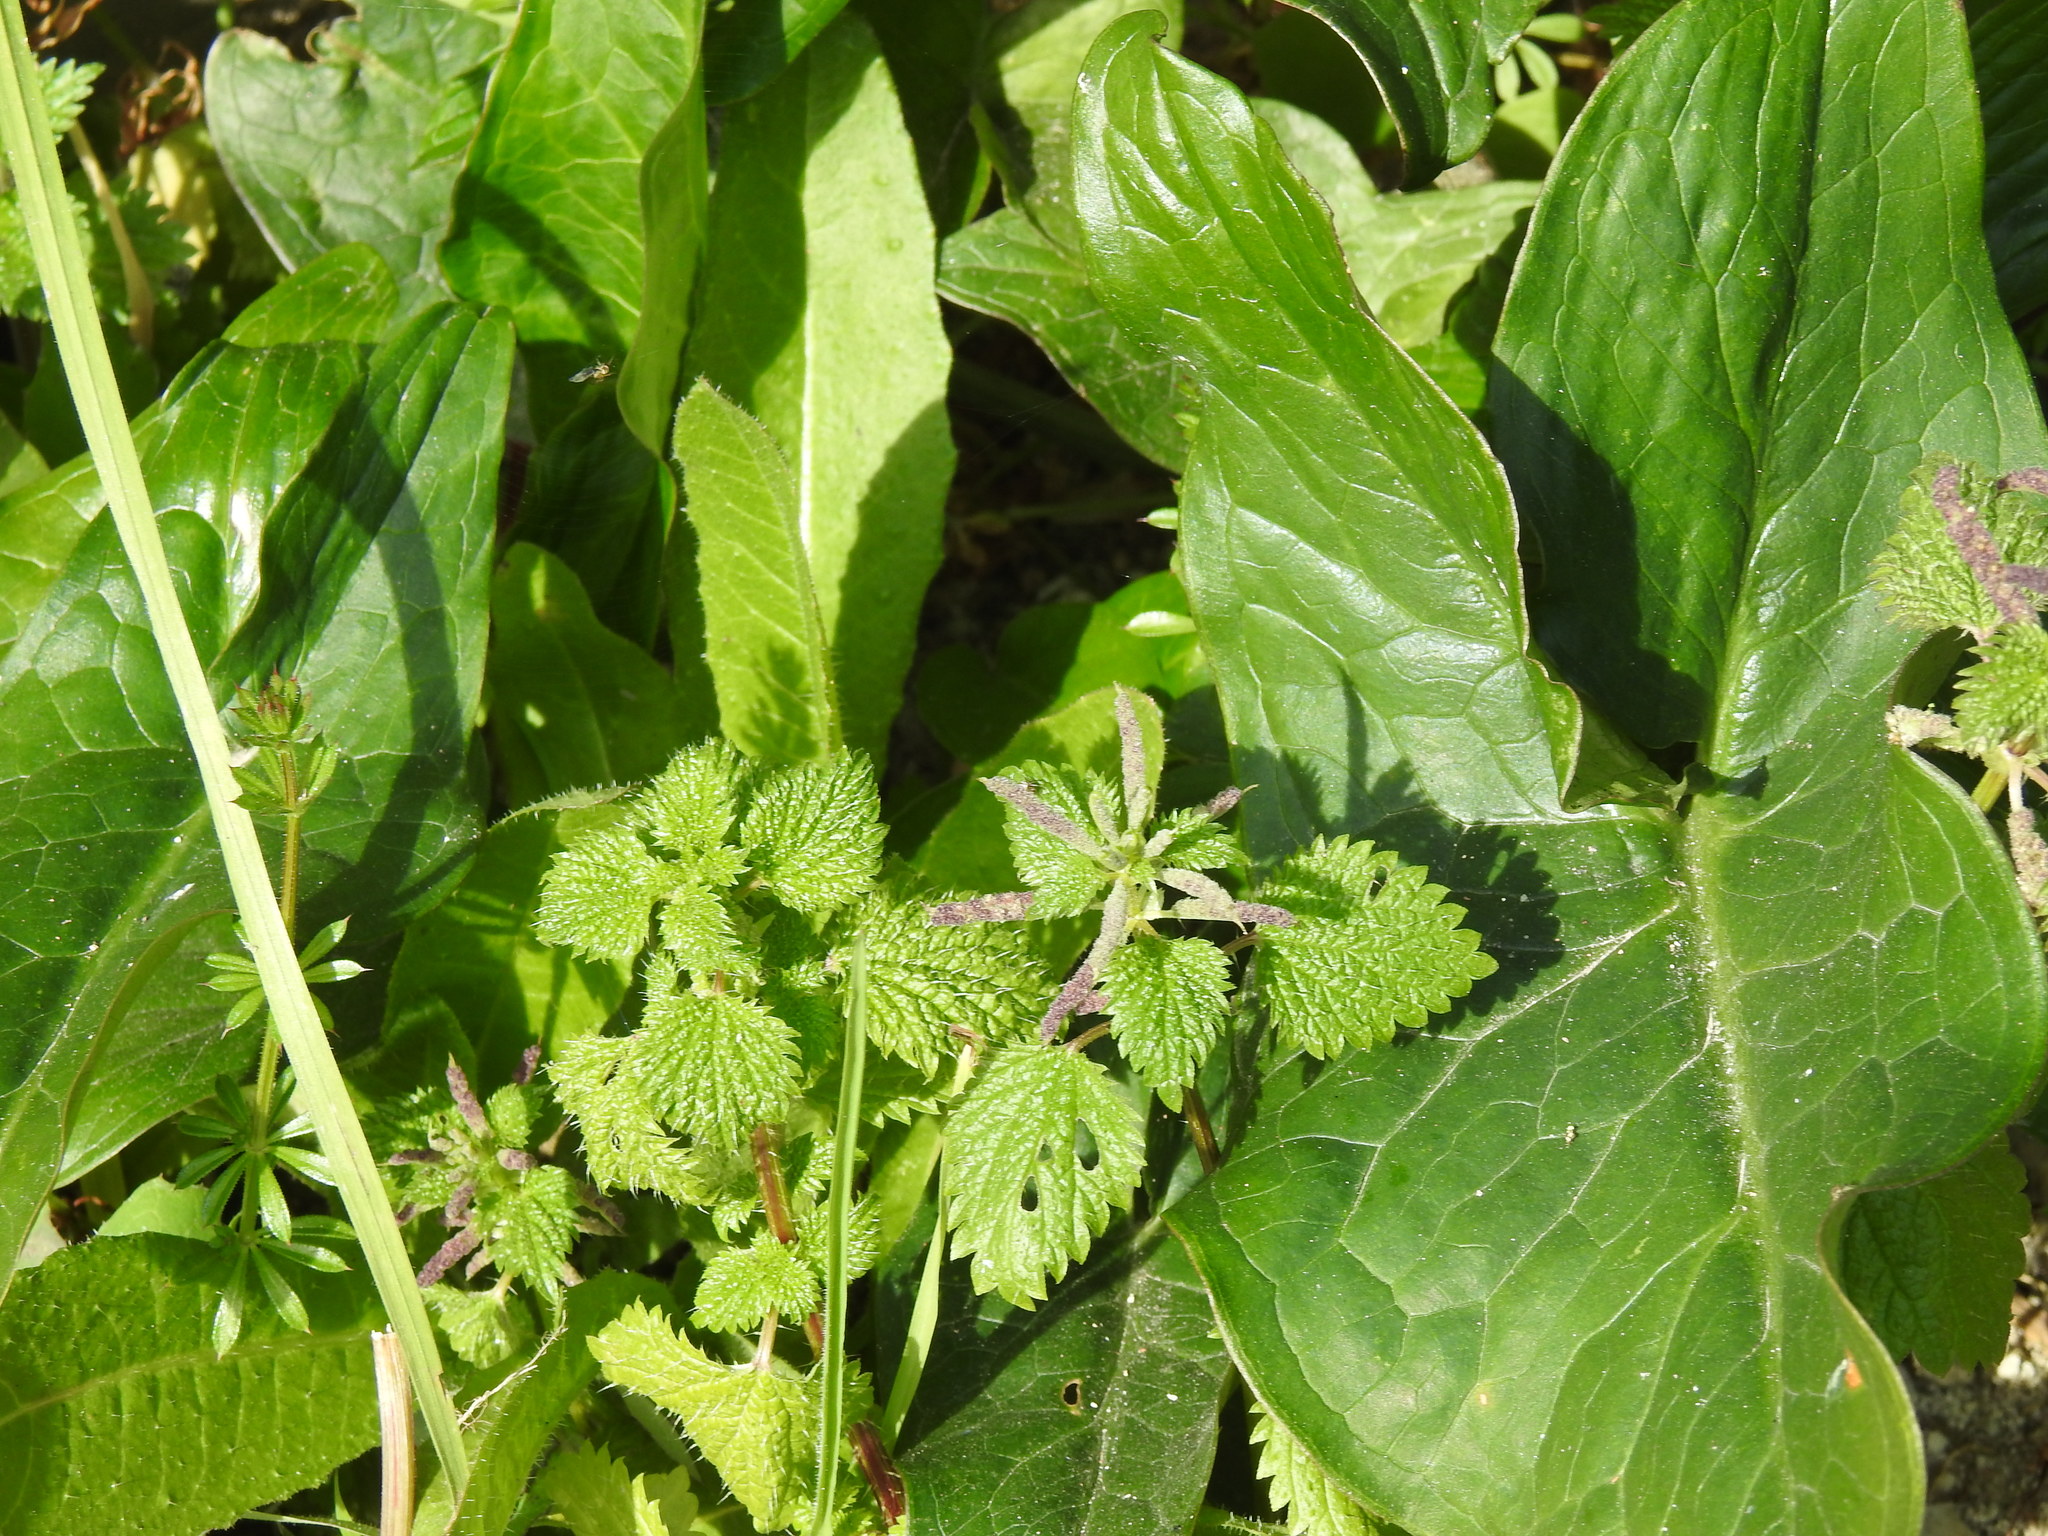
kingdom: Plantae
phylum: Tracheophyta
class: Magnoliopsida
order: Rosales
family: Urticaceae
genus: Urtica
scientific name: Urtica membranacea
